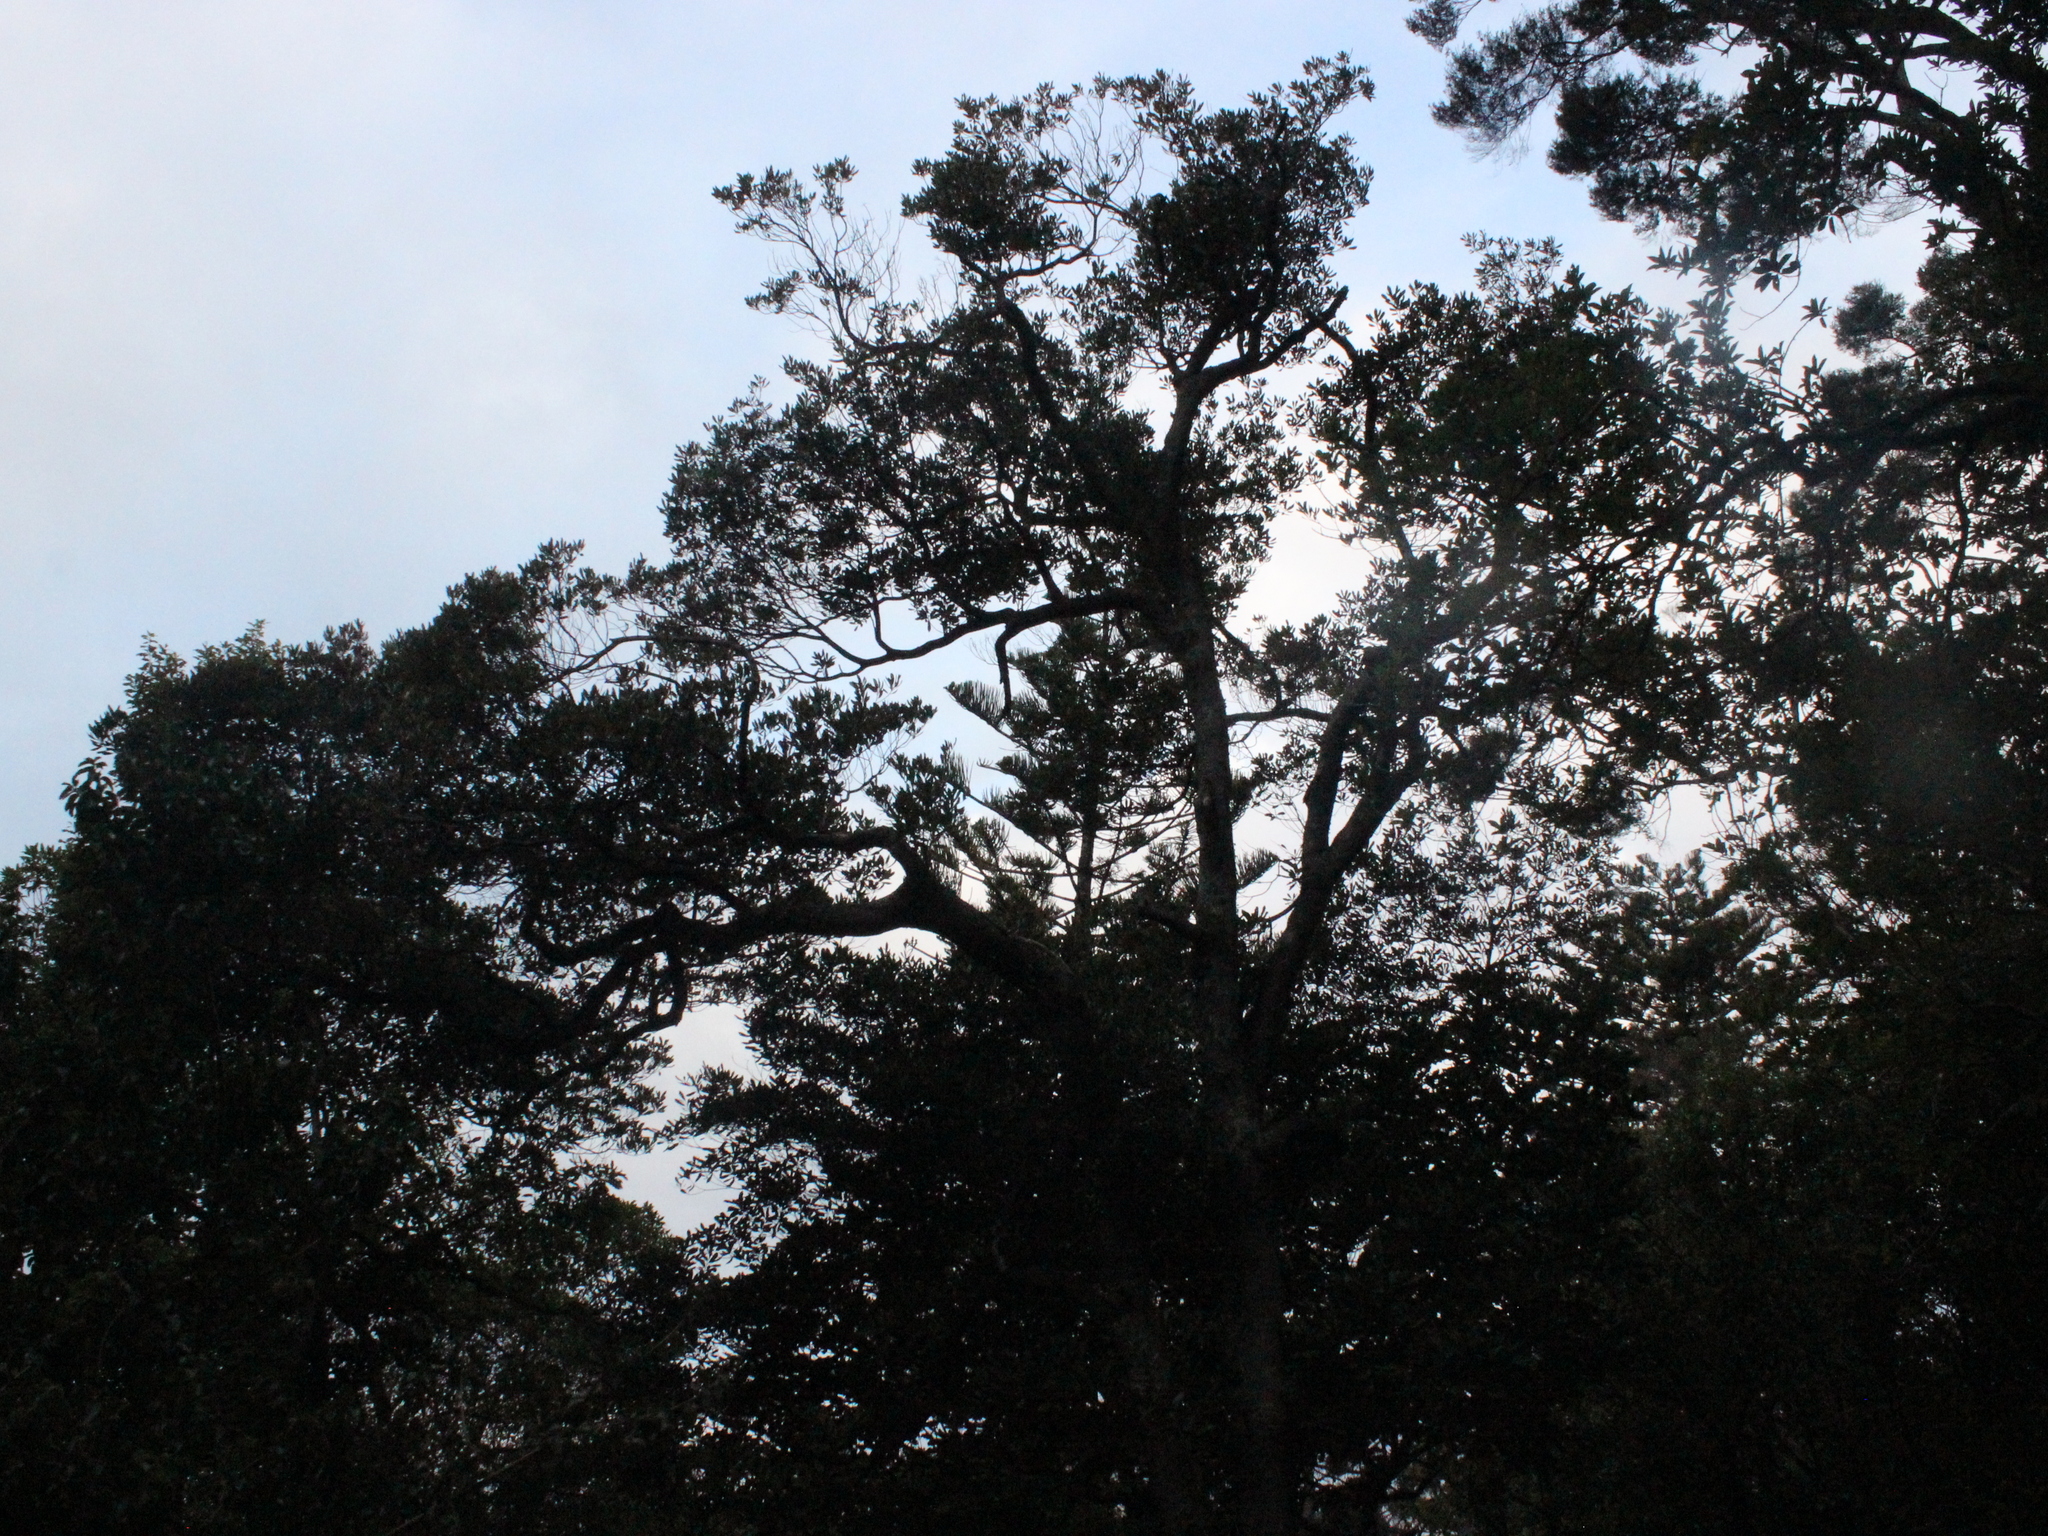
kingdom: Plantae
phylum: Tracheophyta
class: Magnoliopsida
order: Oxalidales
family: Elaeocarpaceae
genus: Elaeocarpus
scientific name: Elaeocarpus dentatus
